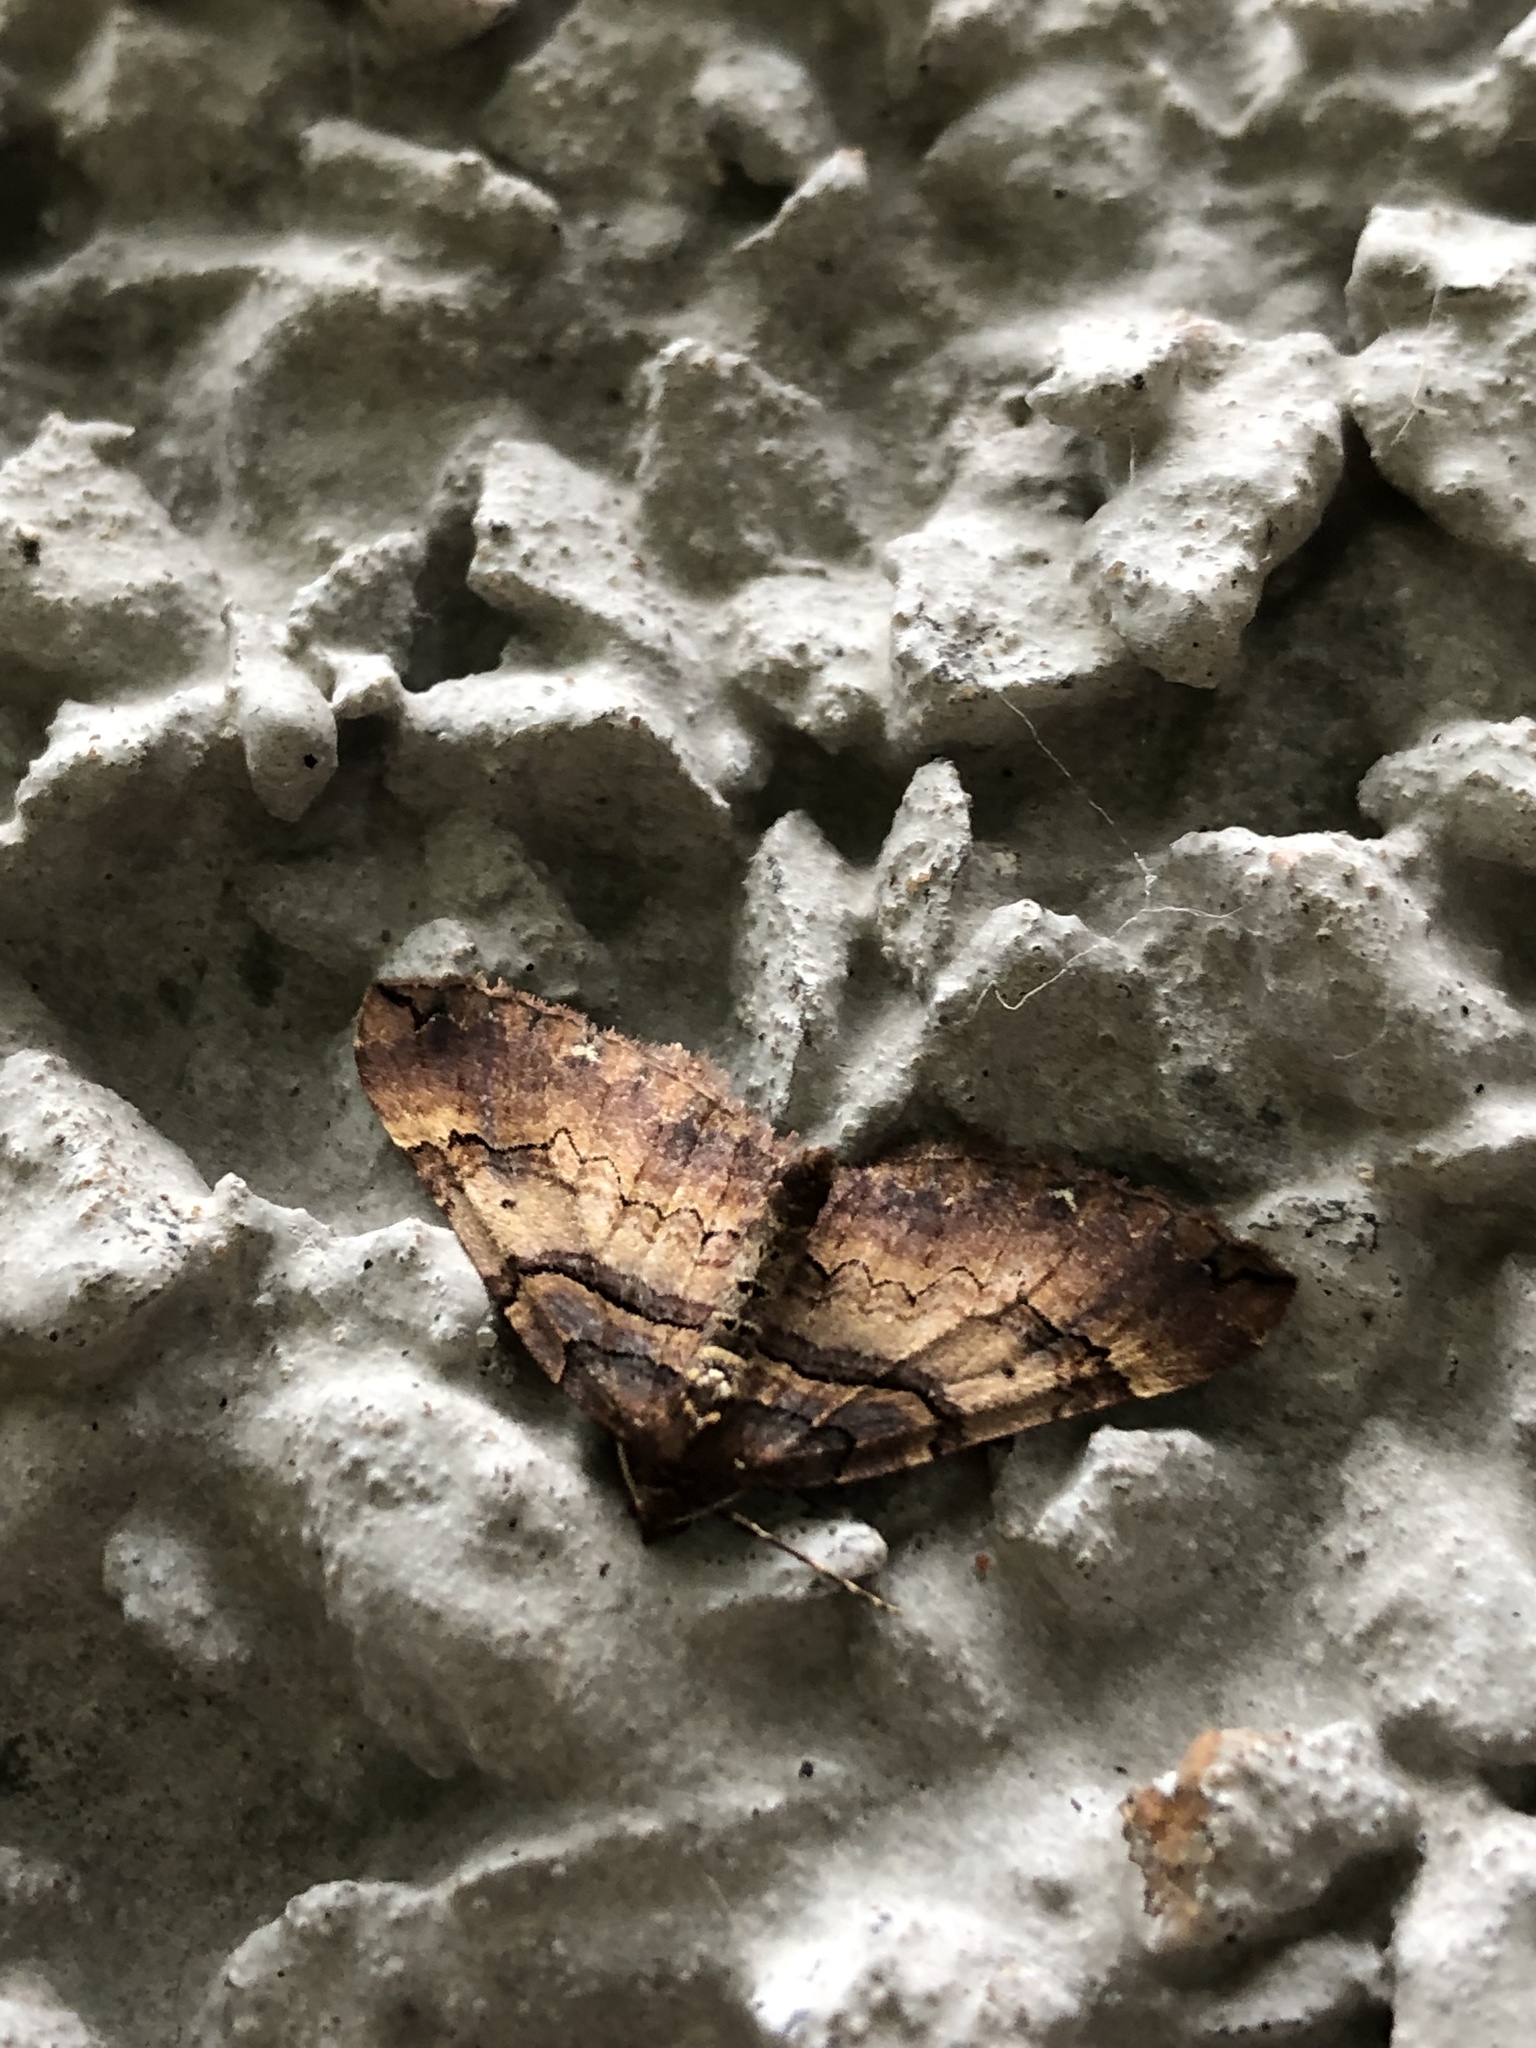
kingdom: Animalia
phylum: Arthropoda
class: Insecta
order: Lepidoptera
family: Geometridae
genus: Anticlea
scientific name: Anticlea badiata
